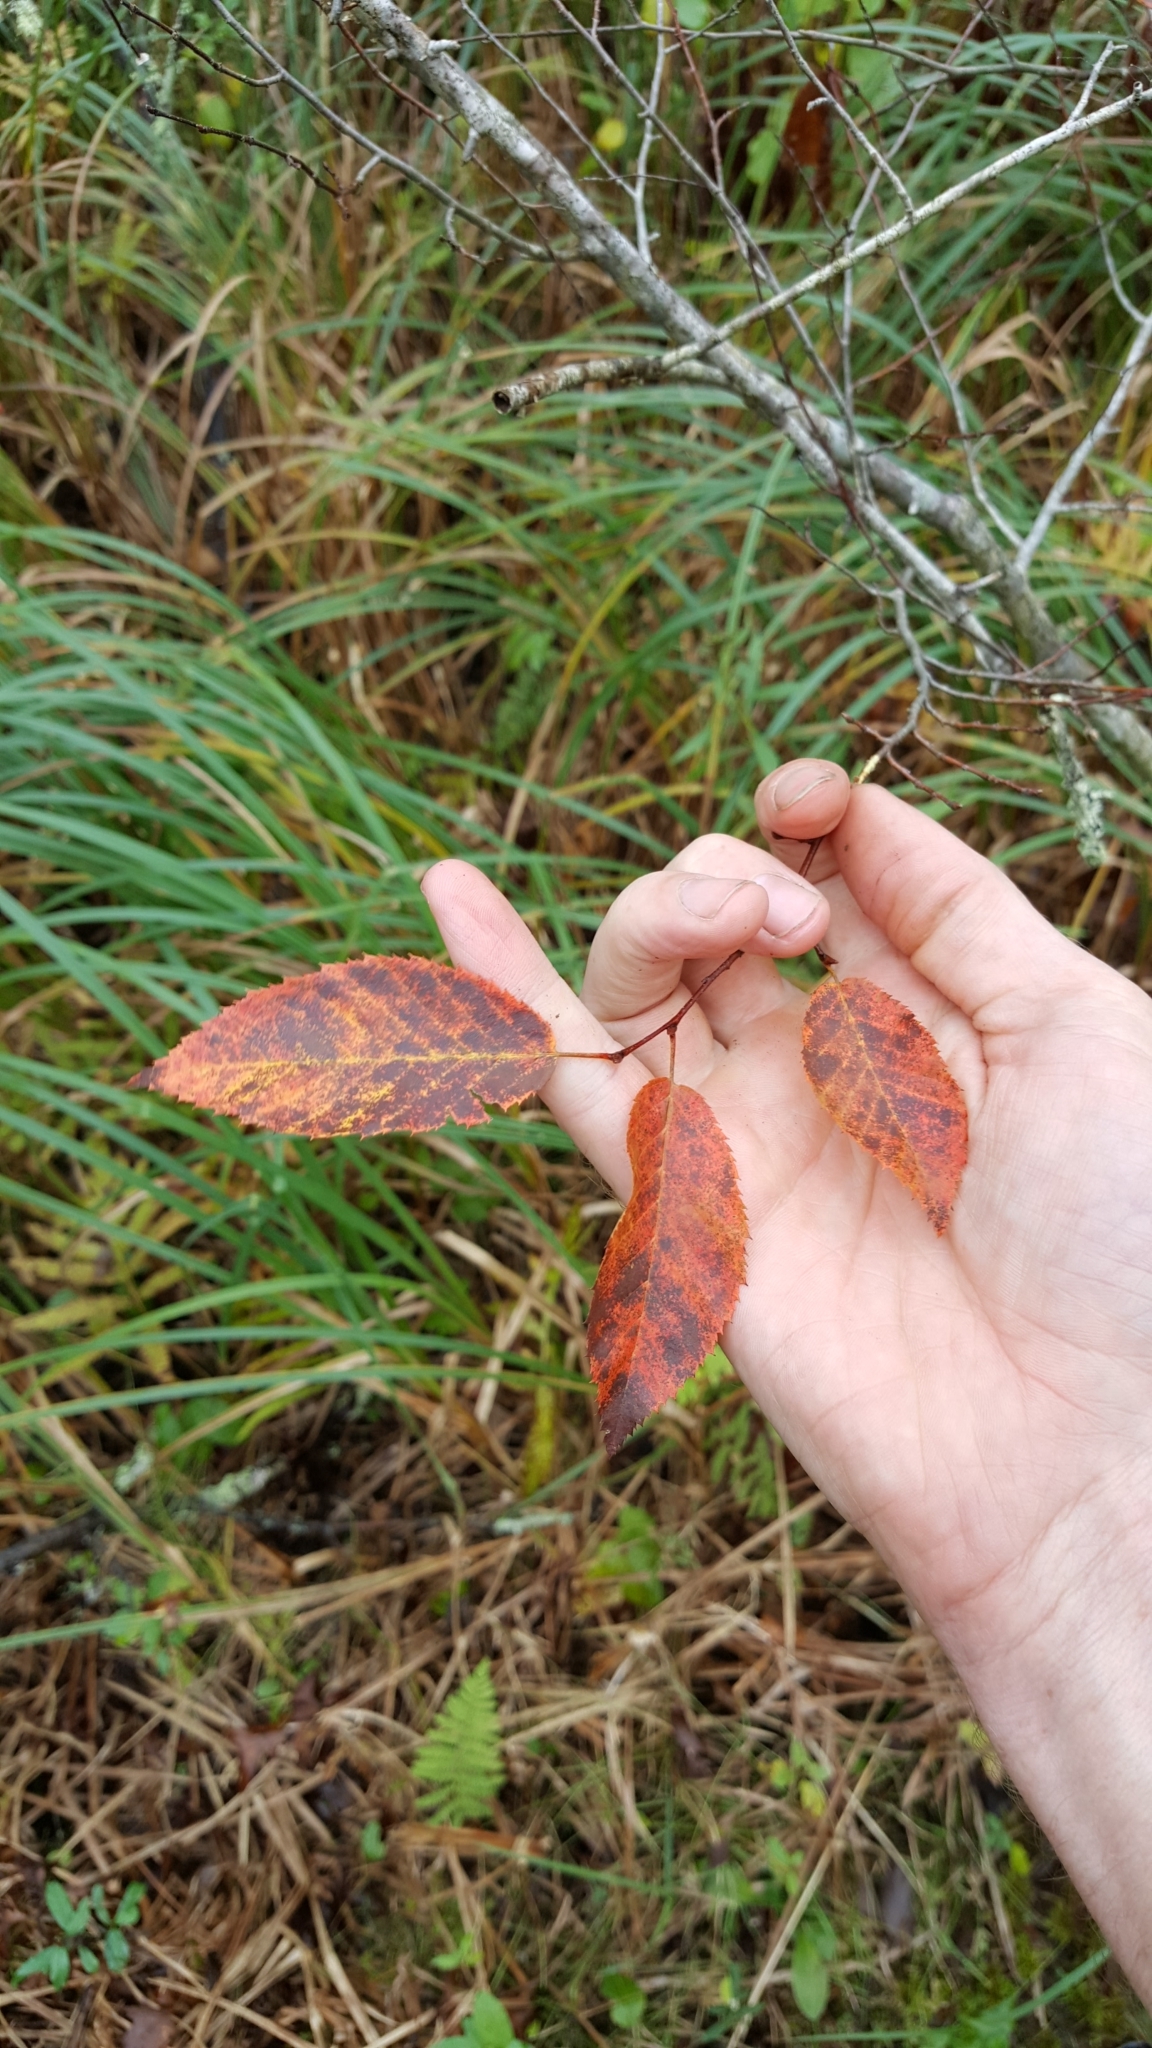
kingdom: Plantae
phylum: Tracheophyta
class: Magnoliopsida
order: Fagales
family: Betulaceae
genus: Carpinus
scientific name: Carpinus caroliniana
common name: American hornbeam
